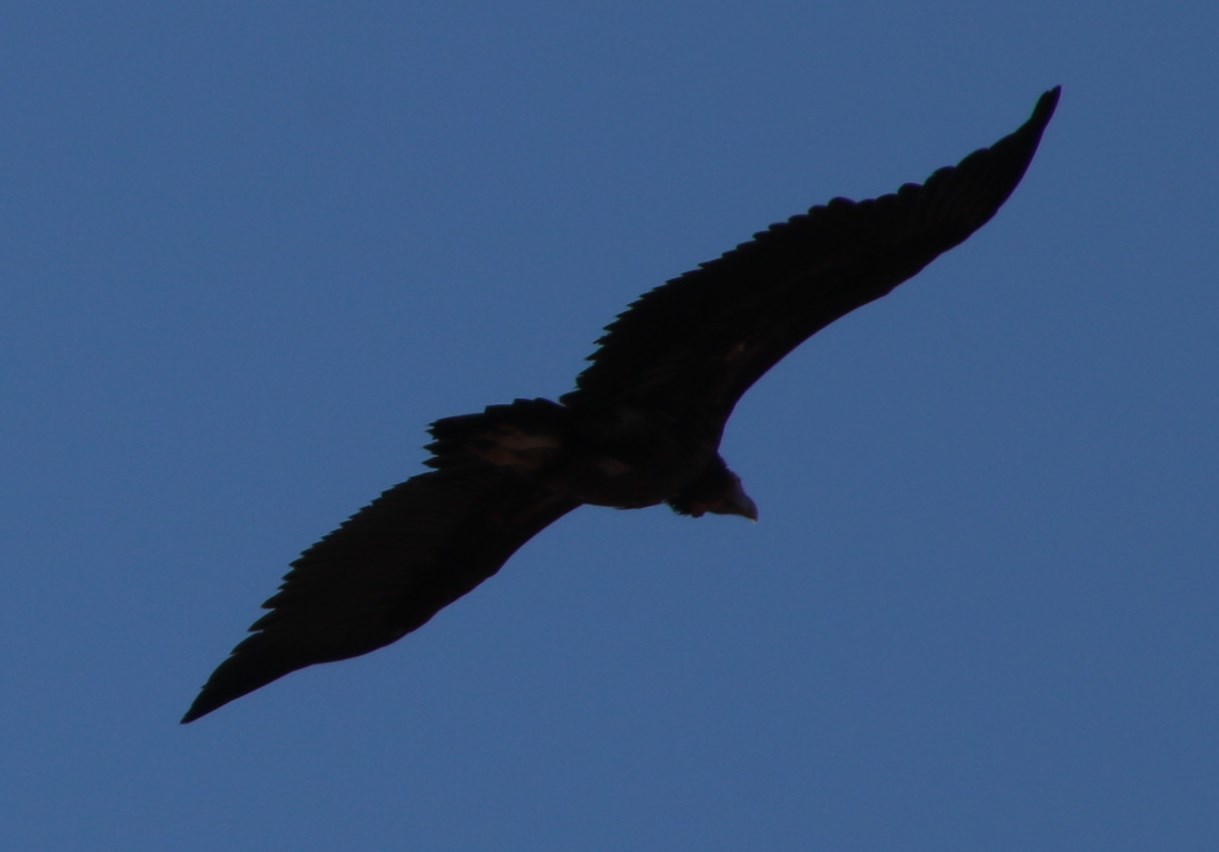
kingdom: Animalia
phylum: Chordata
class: Aves
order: Accipitriformes
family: Accipitridae
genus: Torgos
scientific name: Torgos tracheliotos
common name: Lappet-faced vulture
